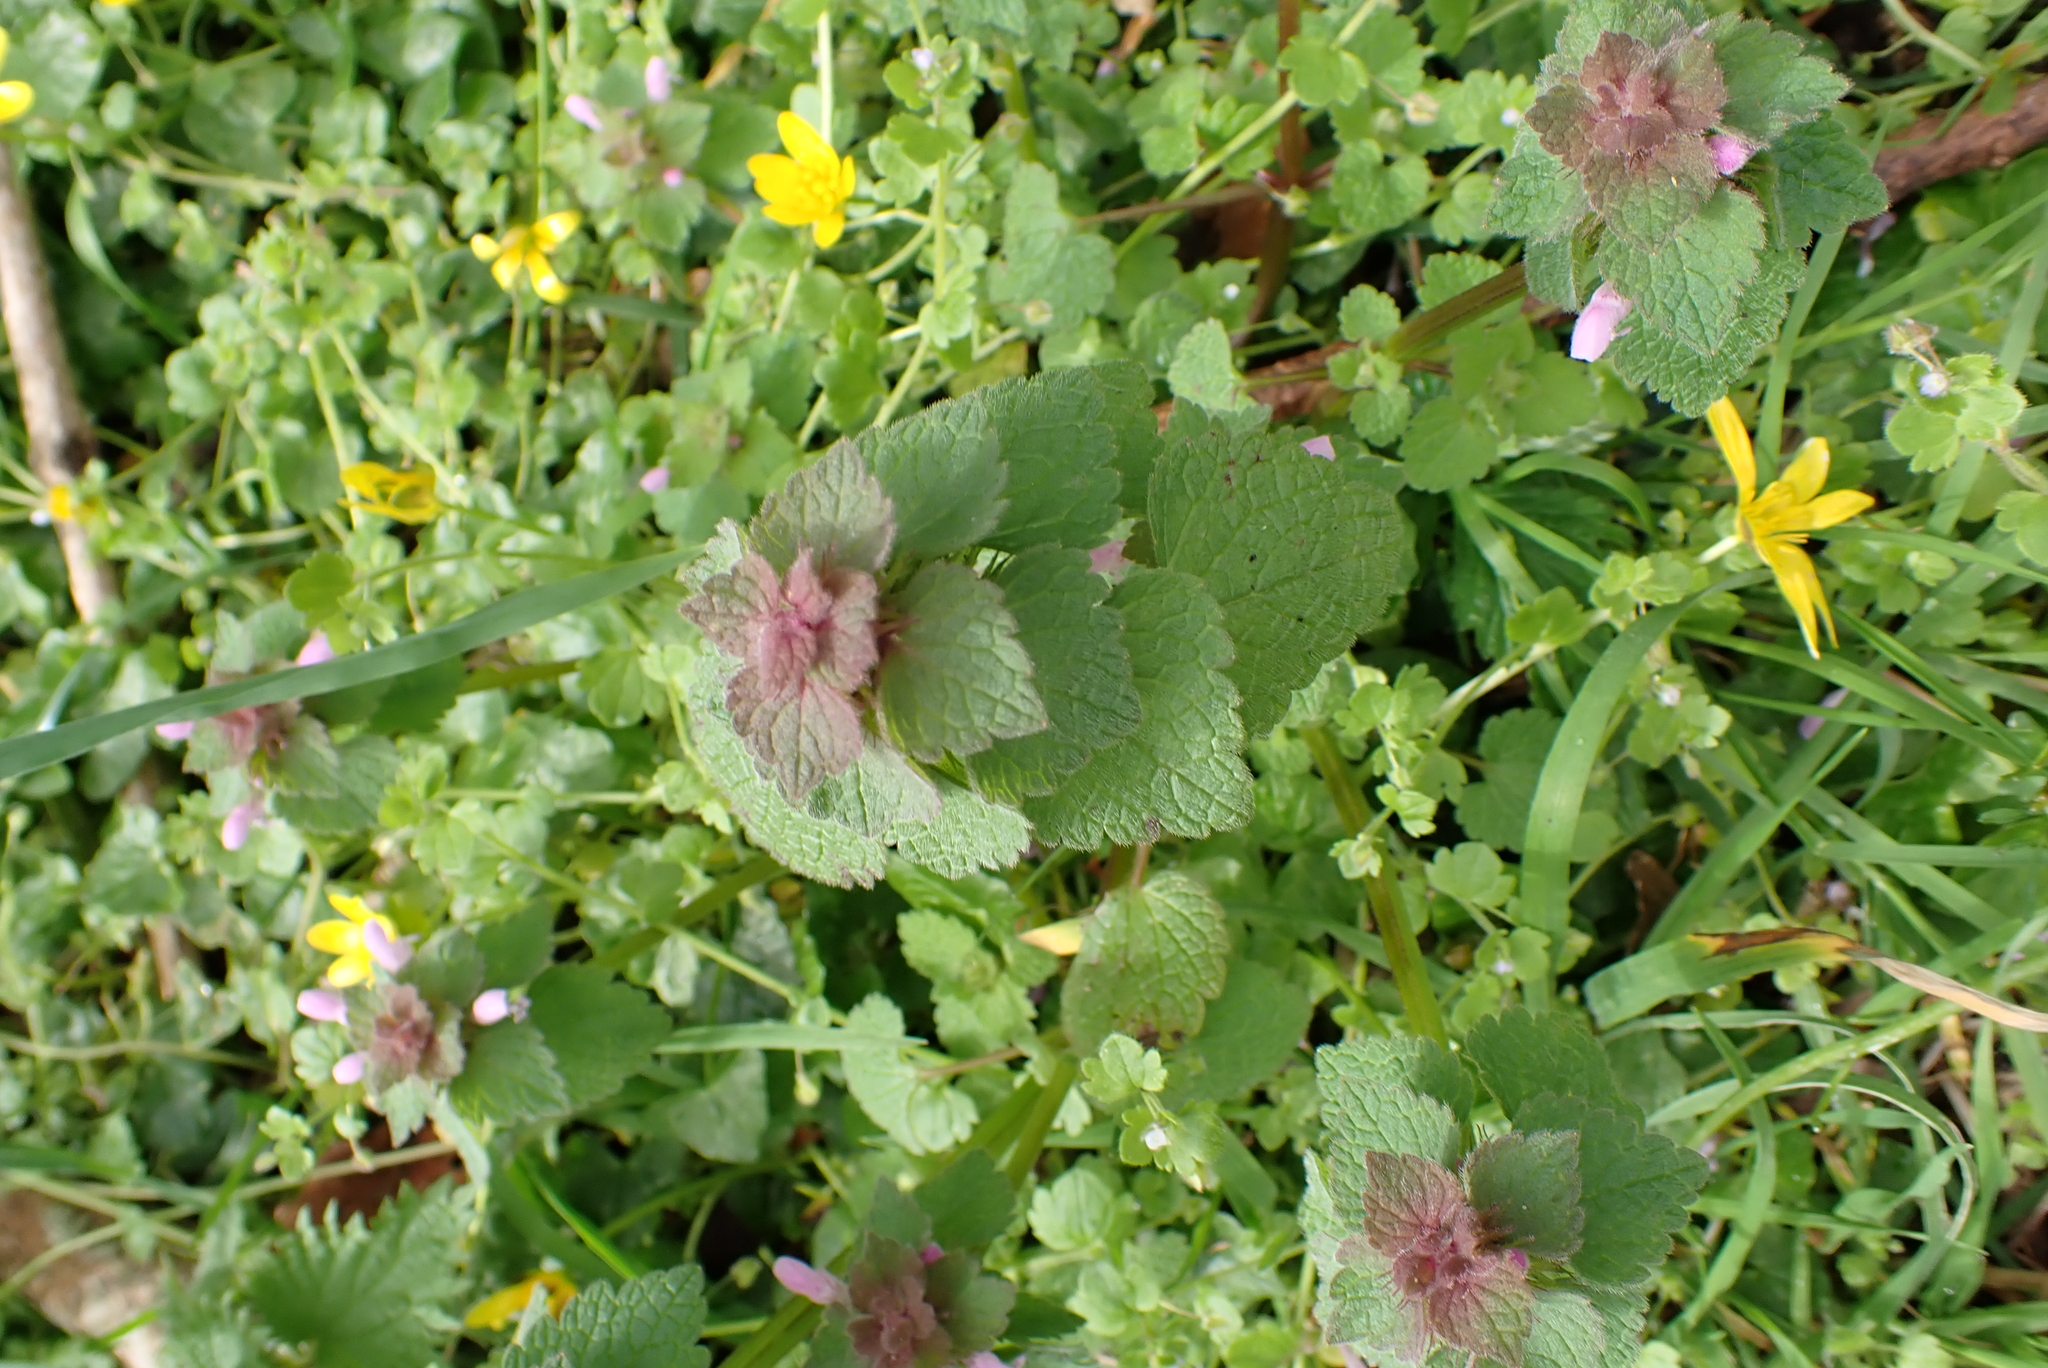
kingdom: Plantae
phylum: Tracheophyta
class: Magnoliopsida
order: Lamiales
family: Lamiaceae
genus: Lamium
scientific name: Lamium purpureum
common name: Red dead-nettle
